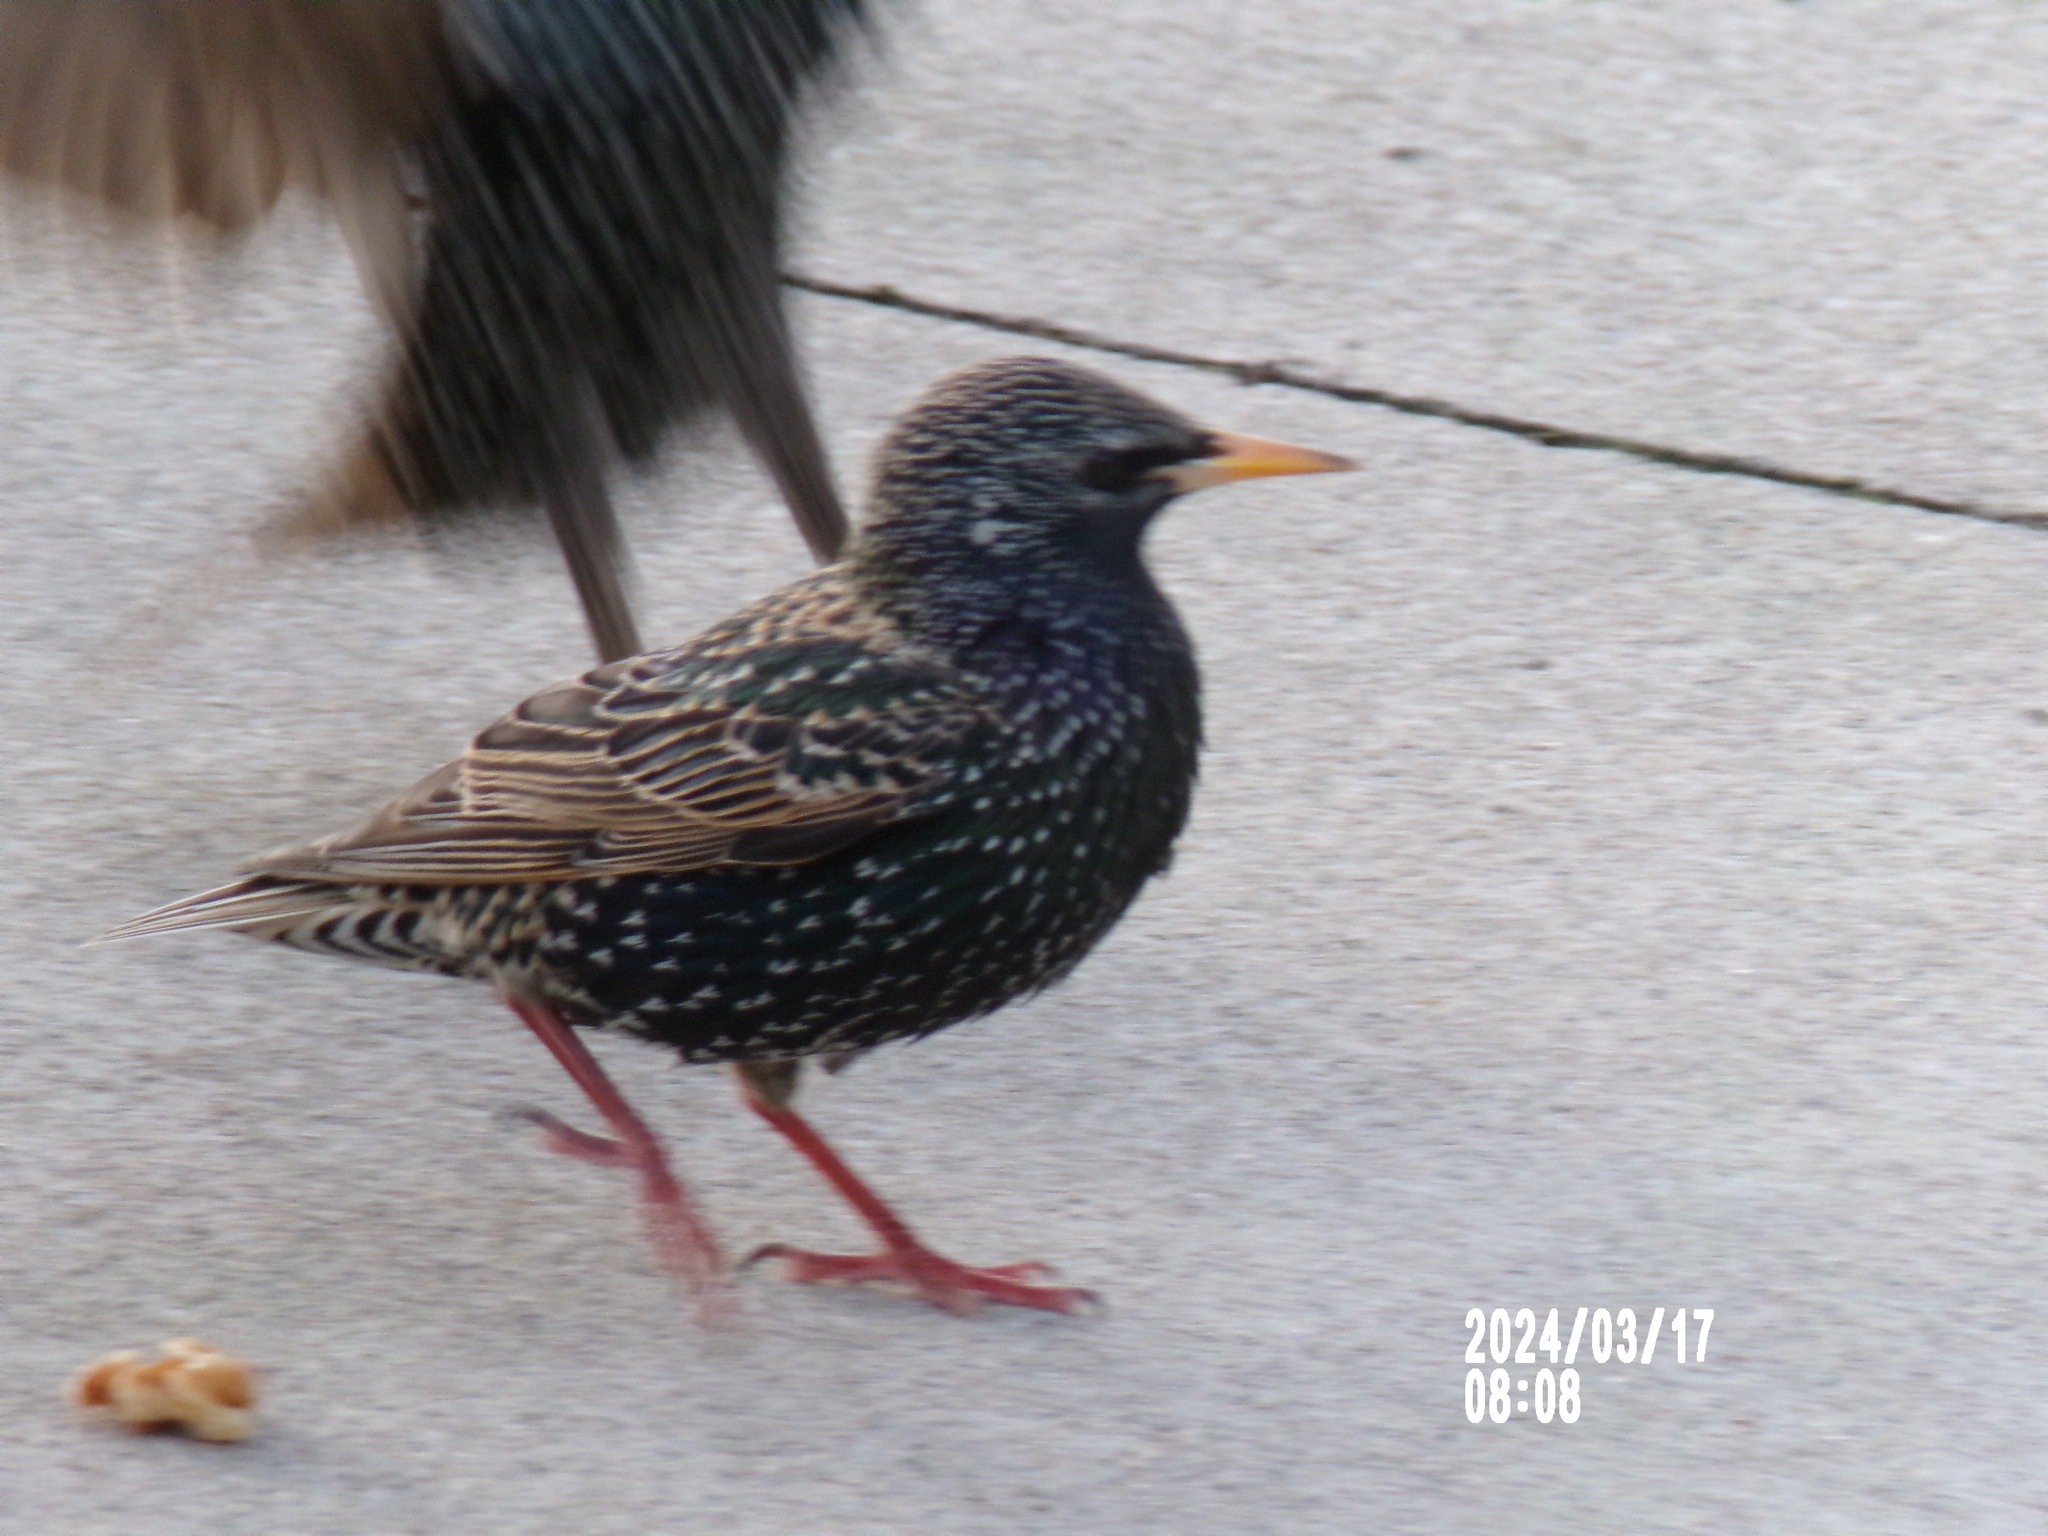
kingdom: Animalia
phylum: Chordata
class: Aves
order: Passeriformes
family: Sturnidae
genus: Sturnus
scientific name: Sturnus vulgaris
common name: Common starling
